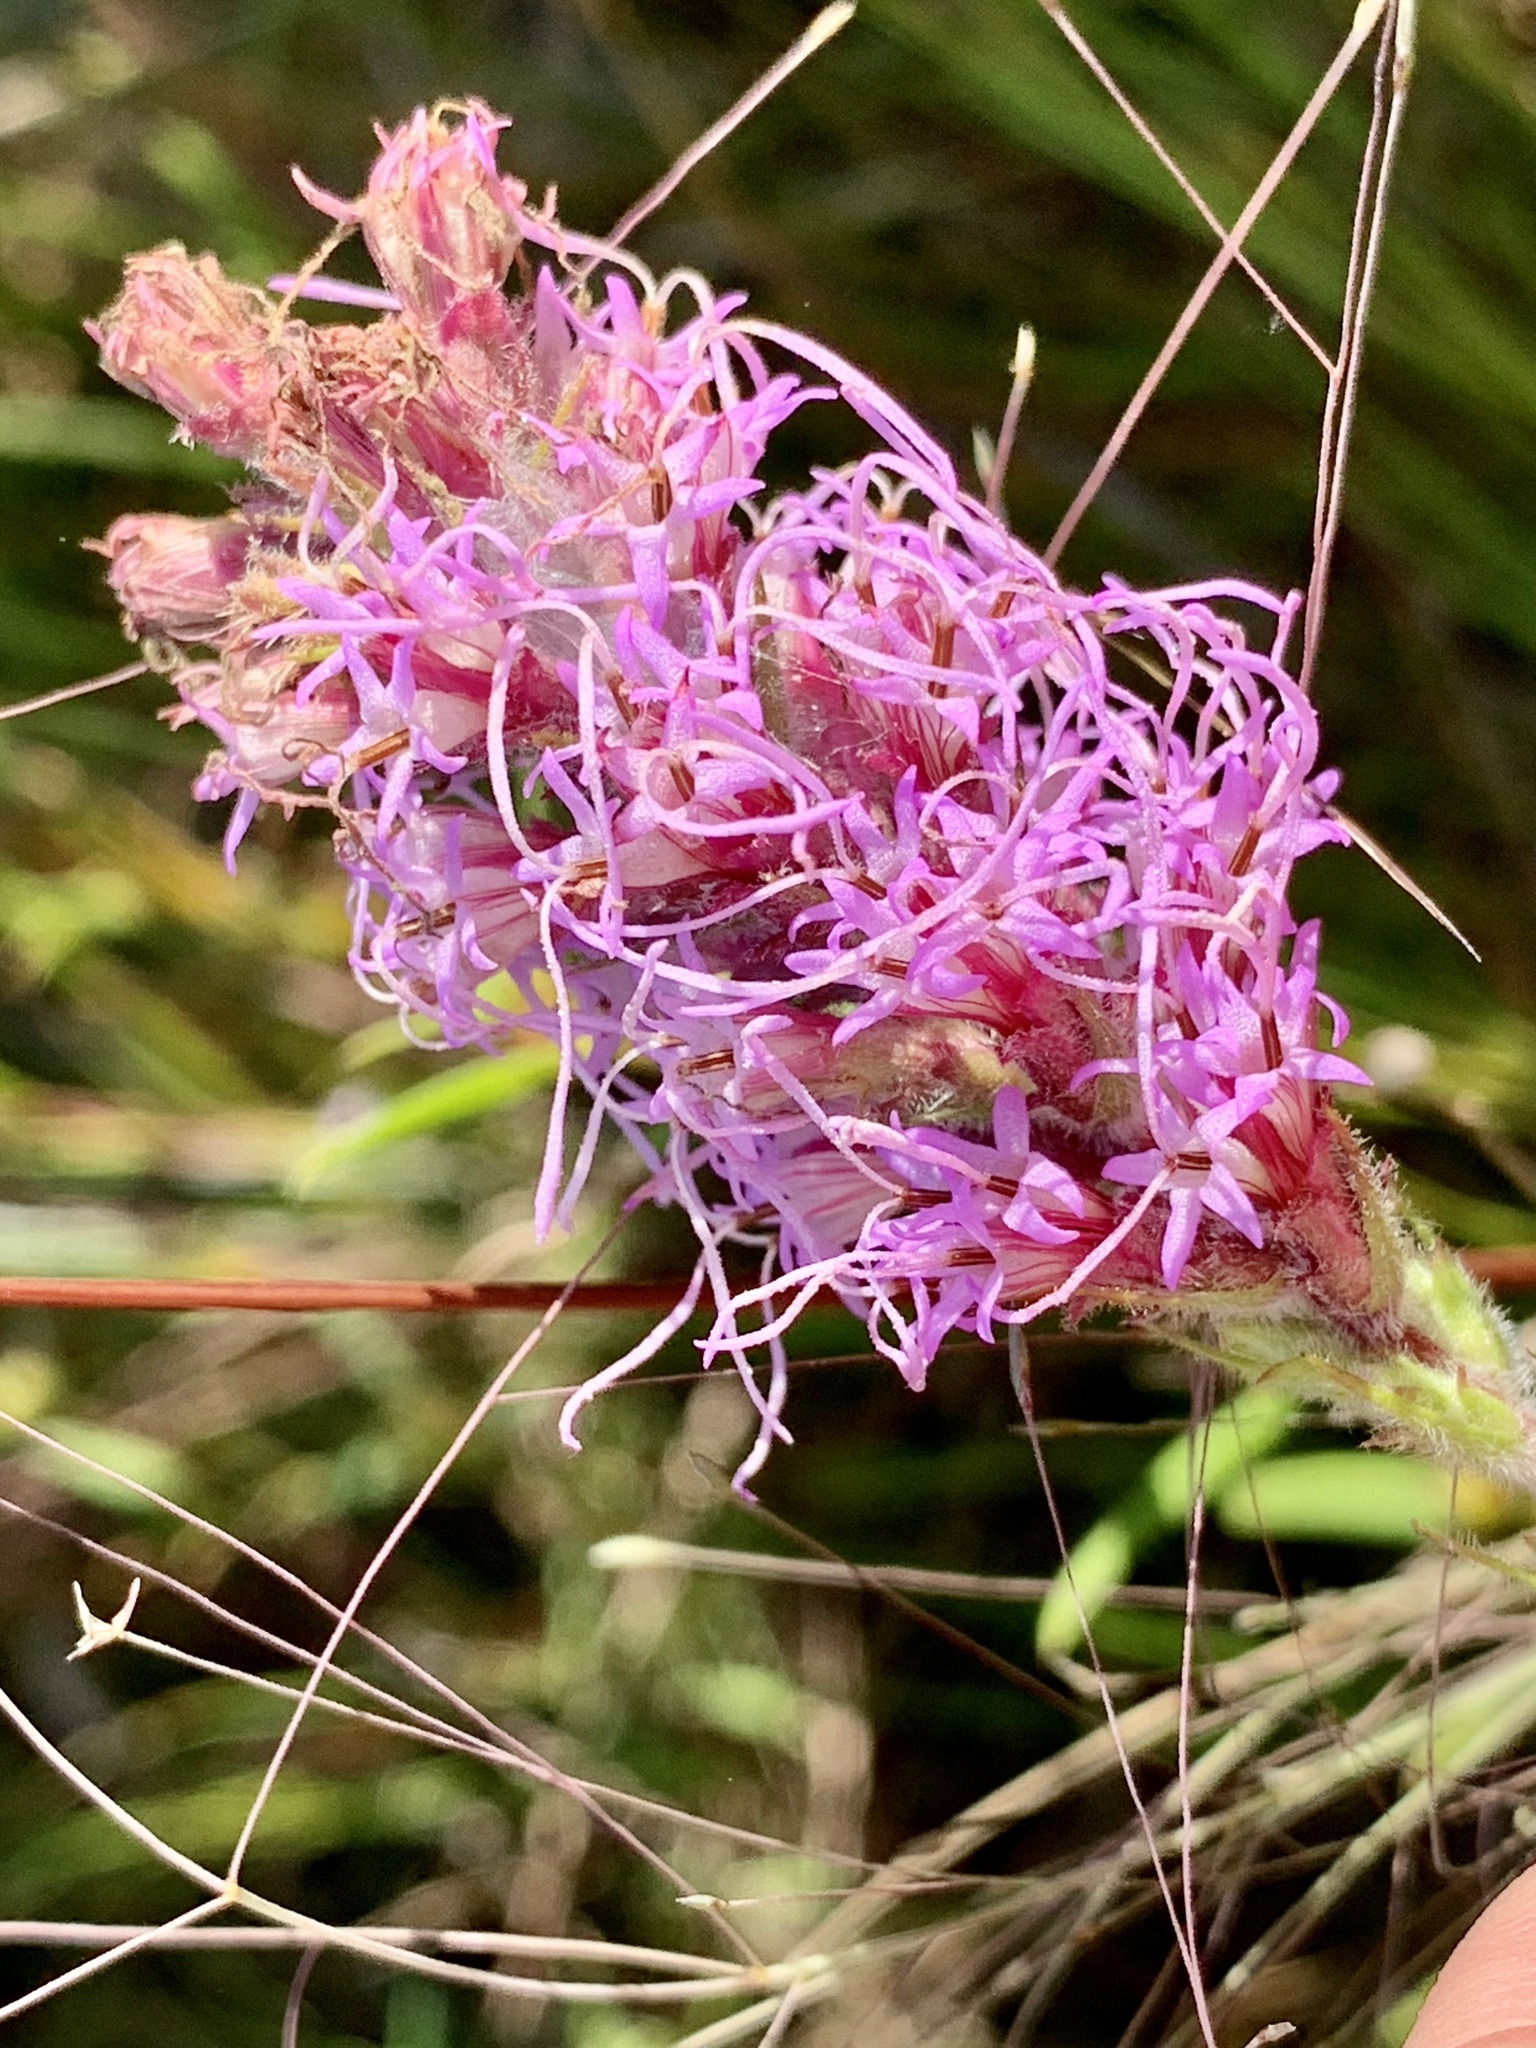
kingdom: Plantae
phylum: Tracheophyta
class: Magnoliopsida
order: Asterales
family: Asteraceae
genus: Liatris
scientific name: Liatris pycnostachya
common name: Cattail gayfeather
